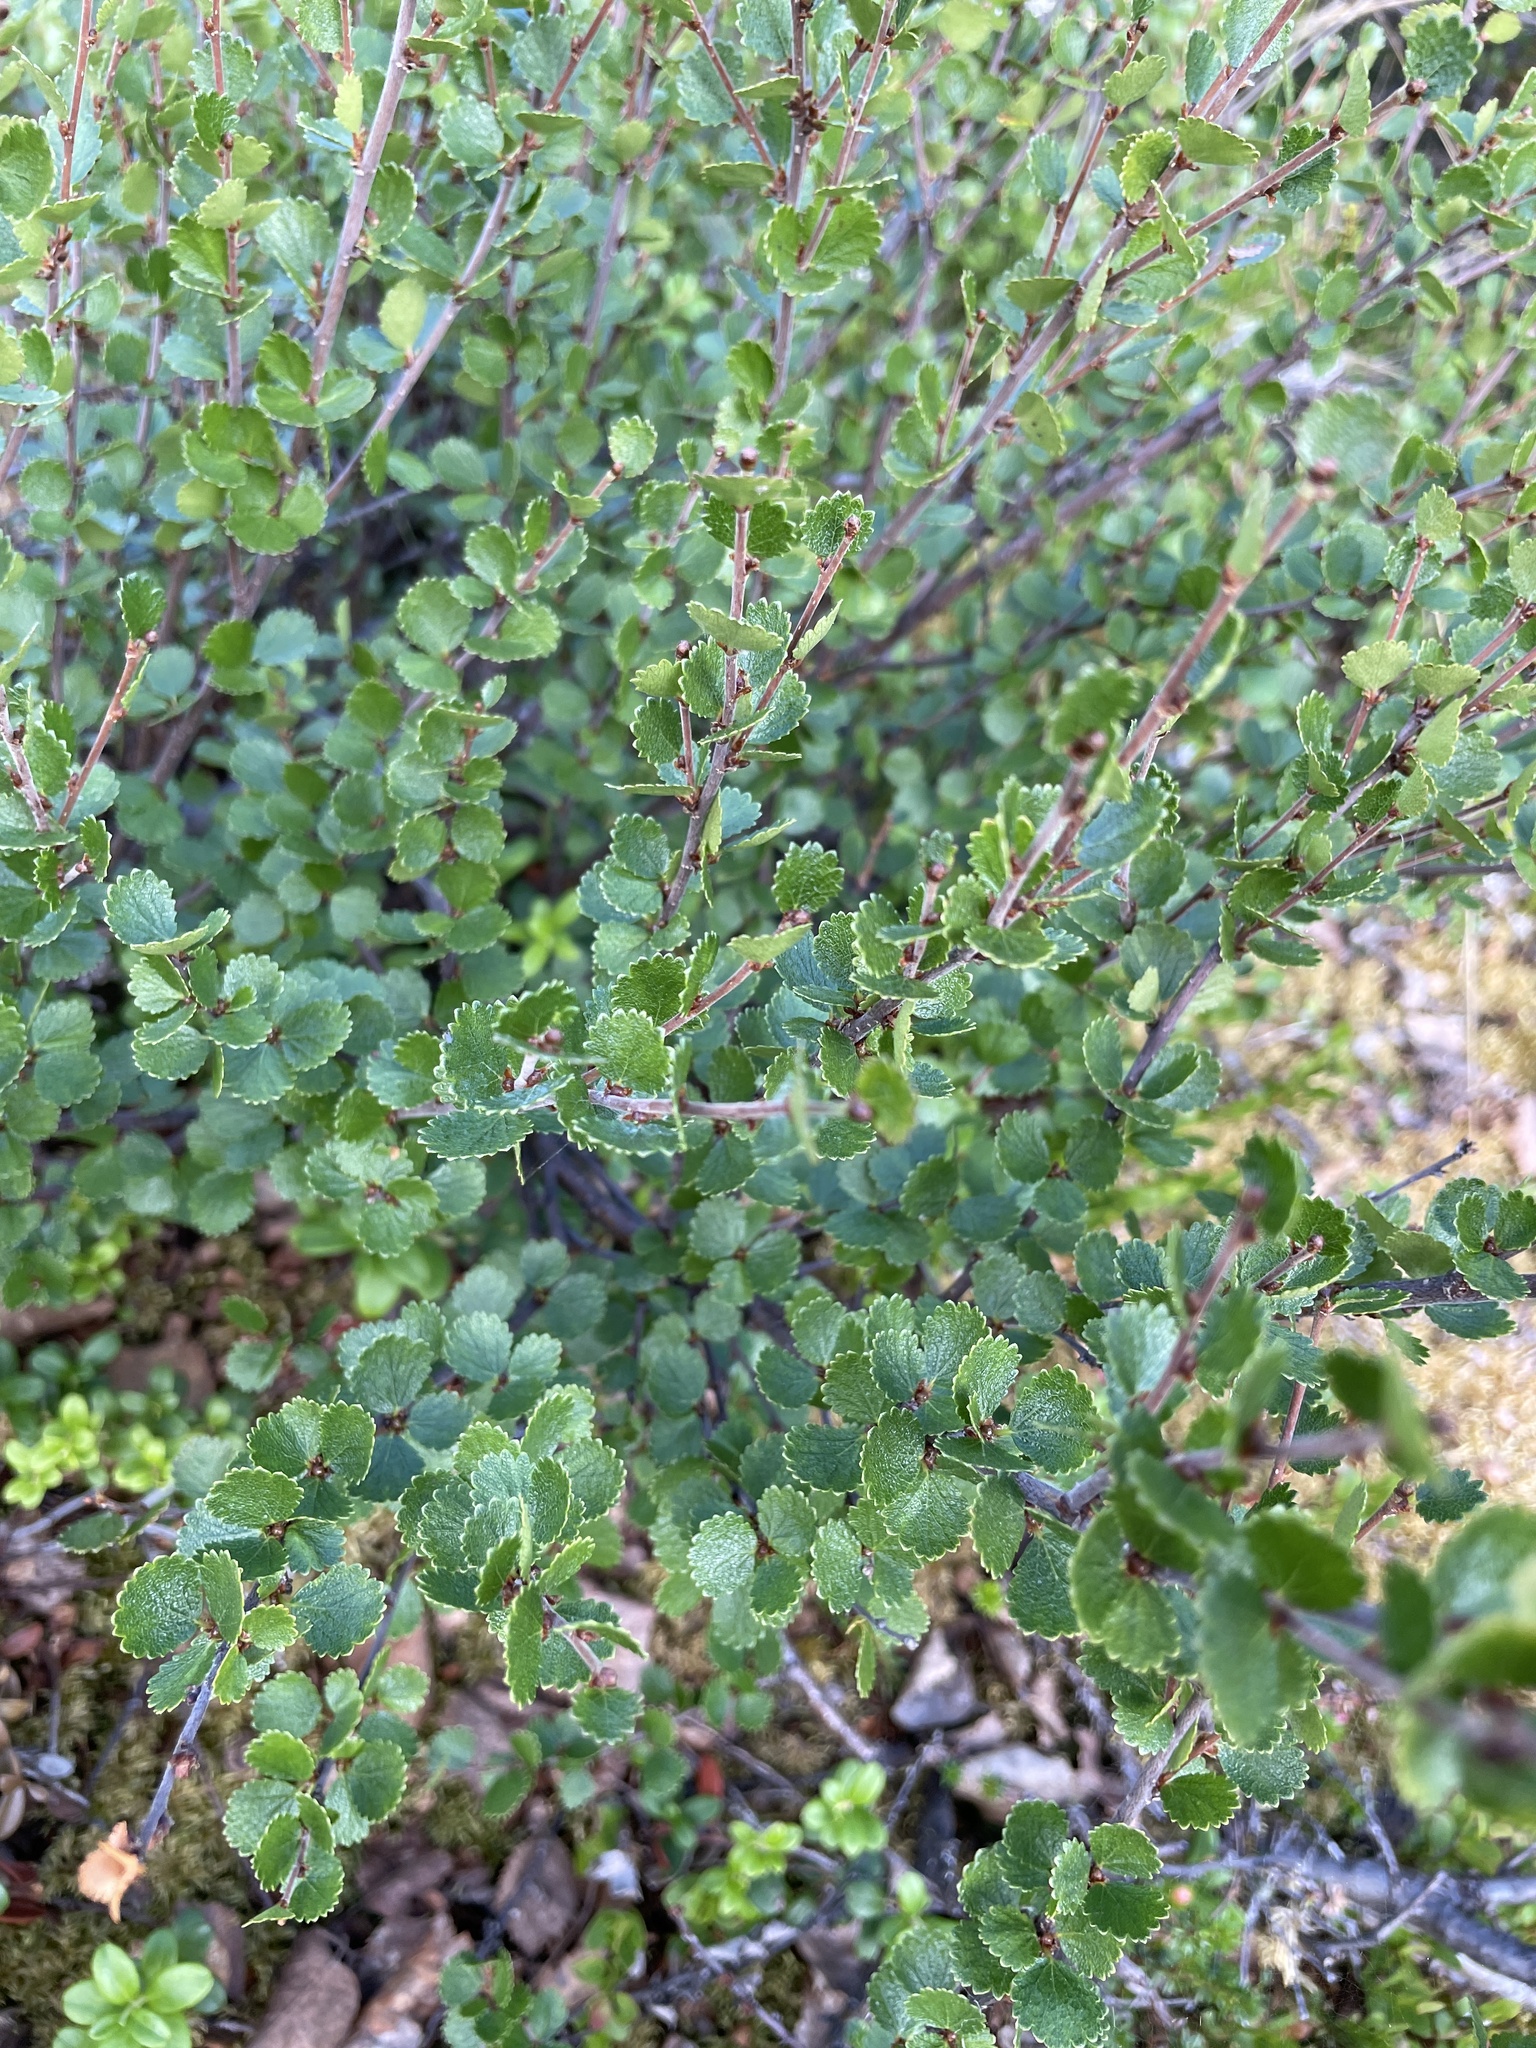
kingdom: Plantae
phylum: Tracheophyta
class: Magnoliopsida
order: Fagales
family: Betulaceae
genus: Betula
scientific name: Betula nana
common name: Arctic dwarf birch
